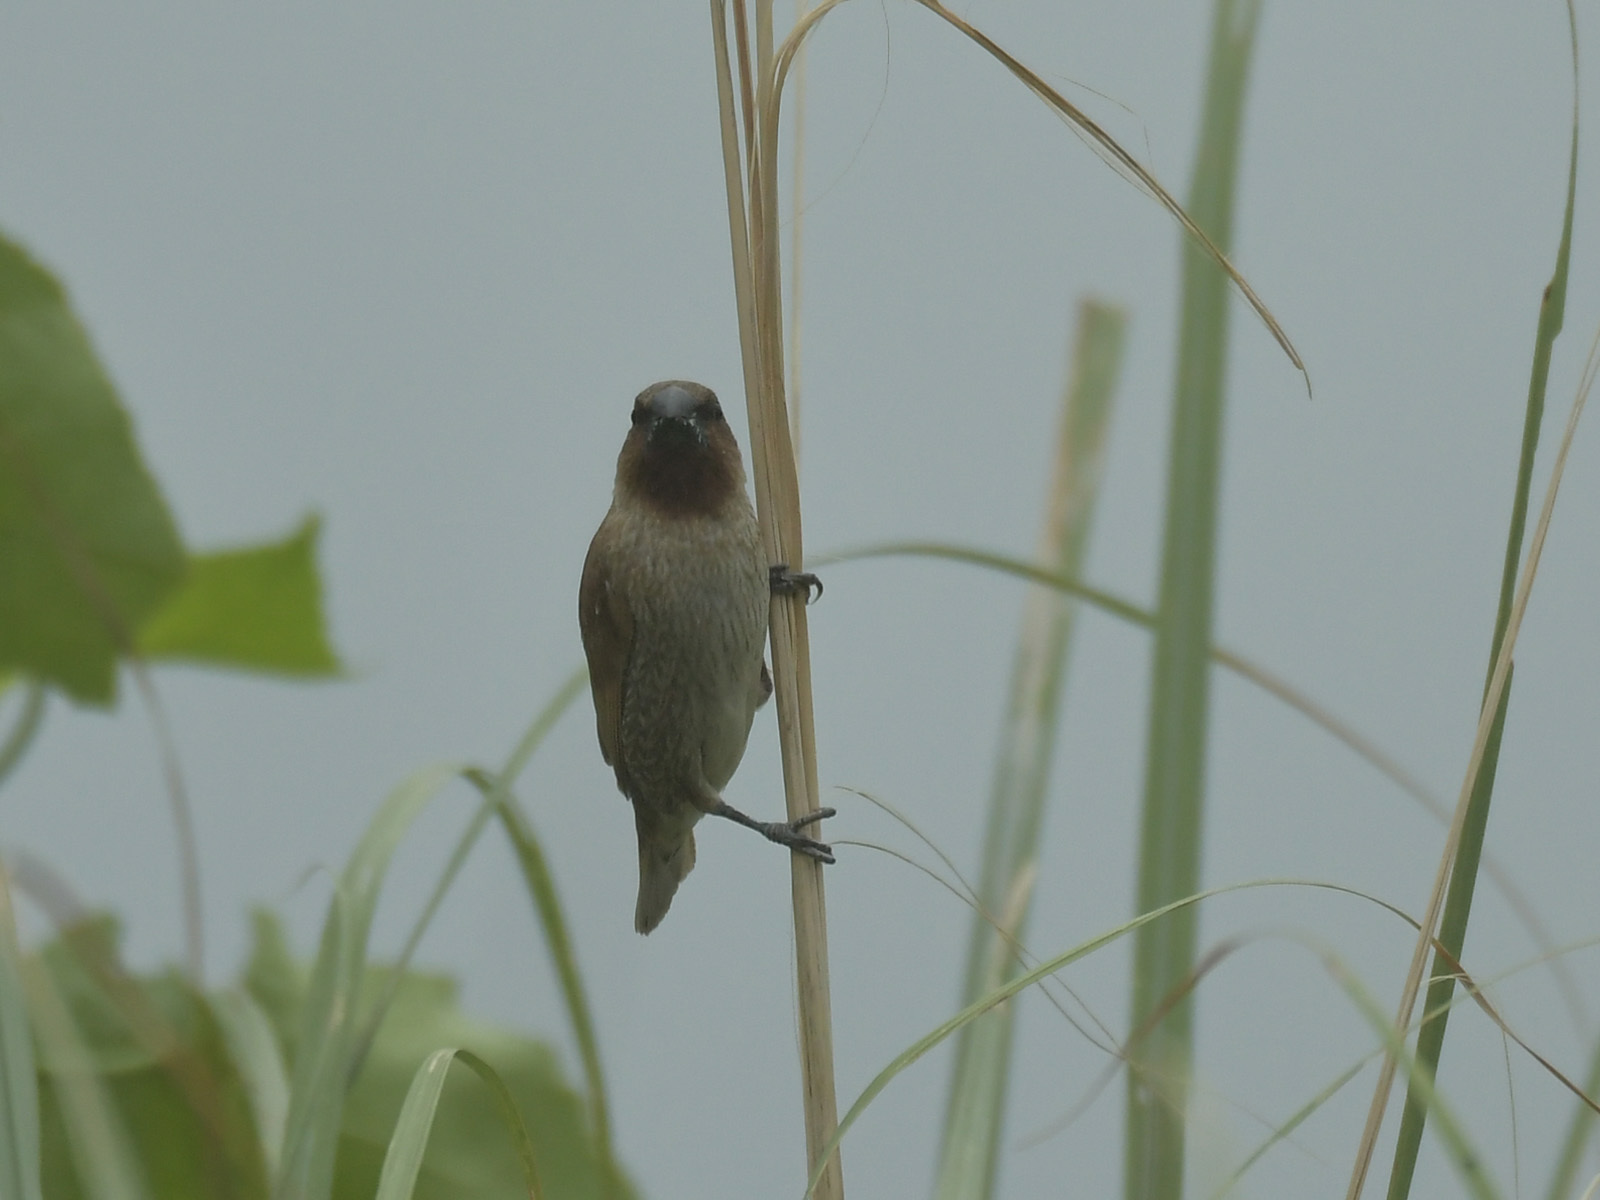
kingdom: Animalia
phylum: Chordata
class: Aves
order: Passeriformes
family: Estrildidae
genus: Lonchura
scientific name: Lonchura punctulata
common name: Scaly-breasted munia
